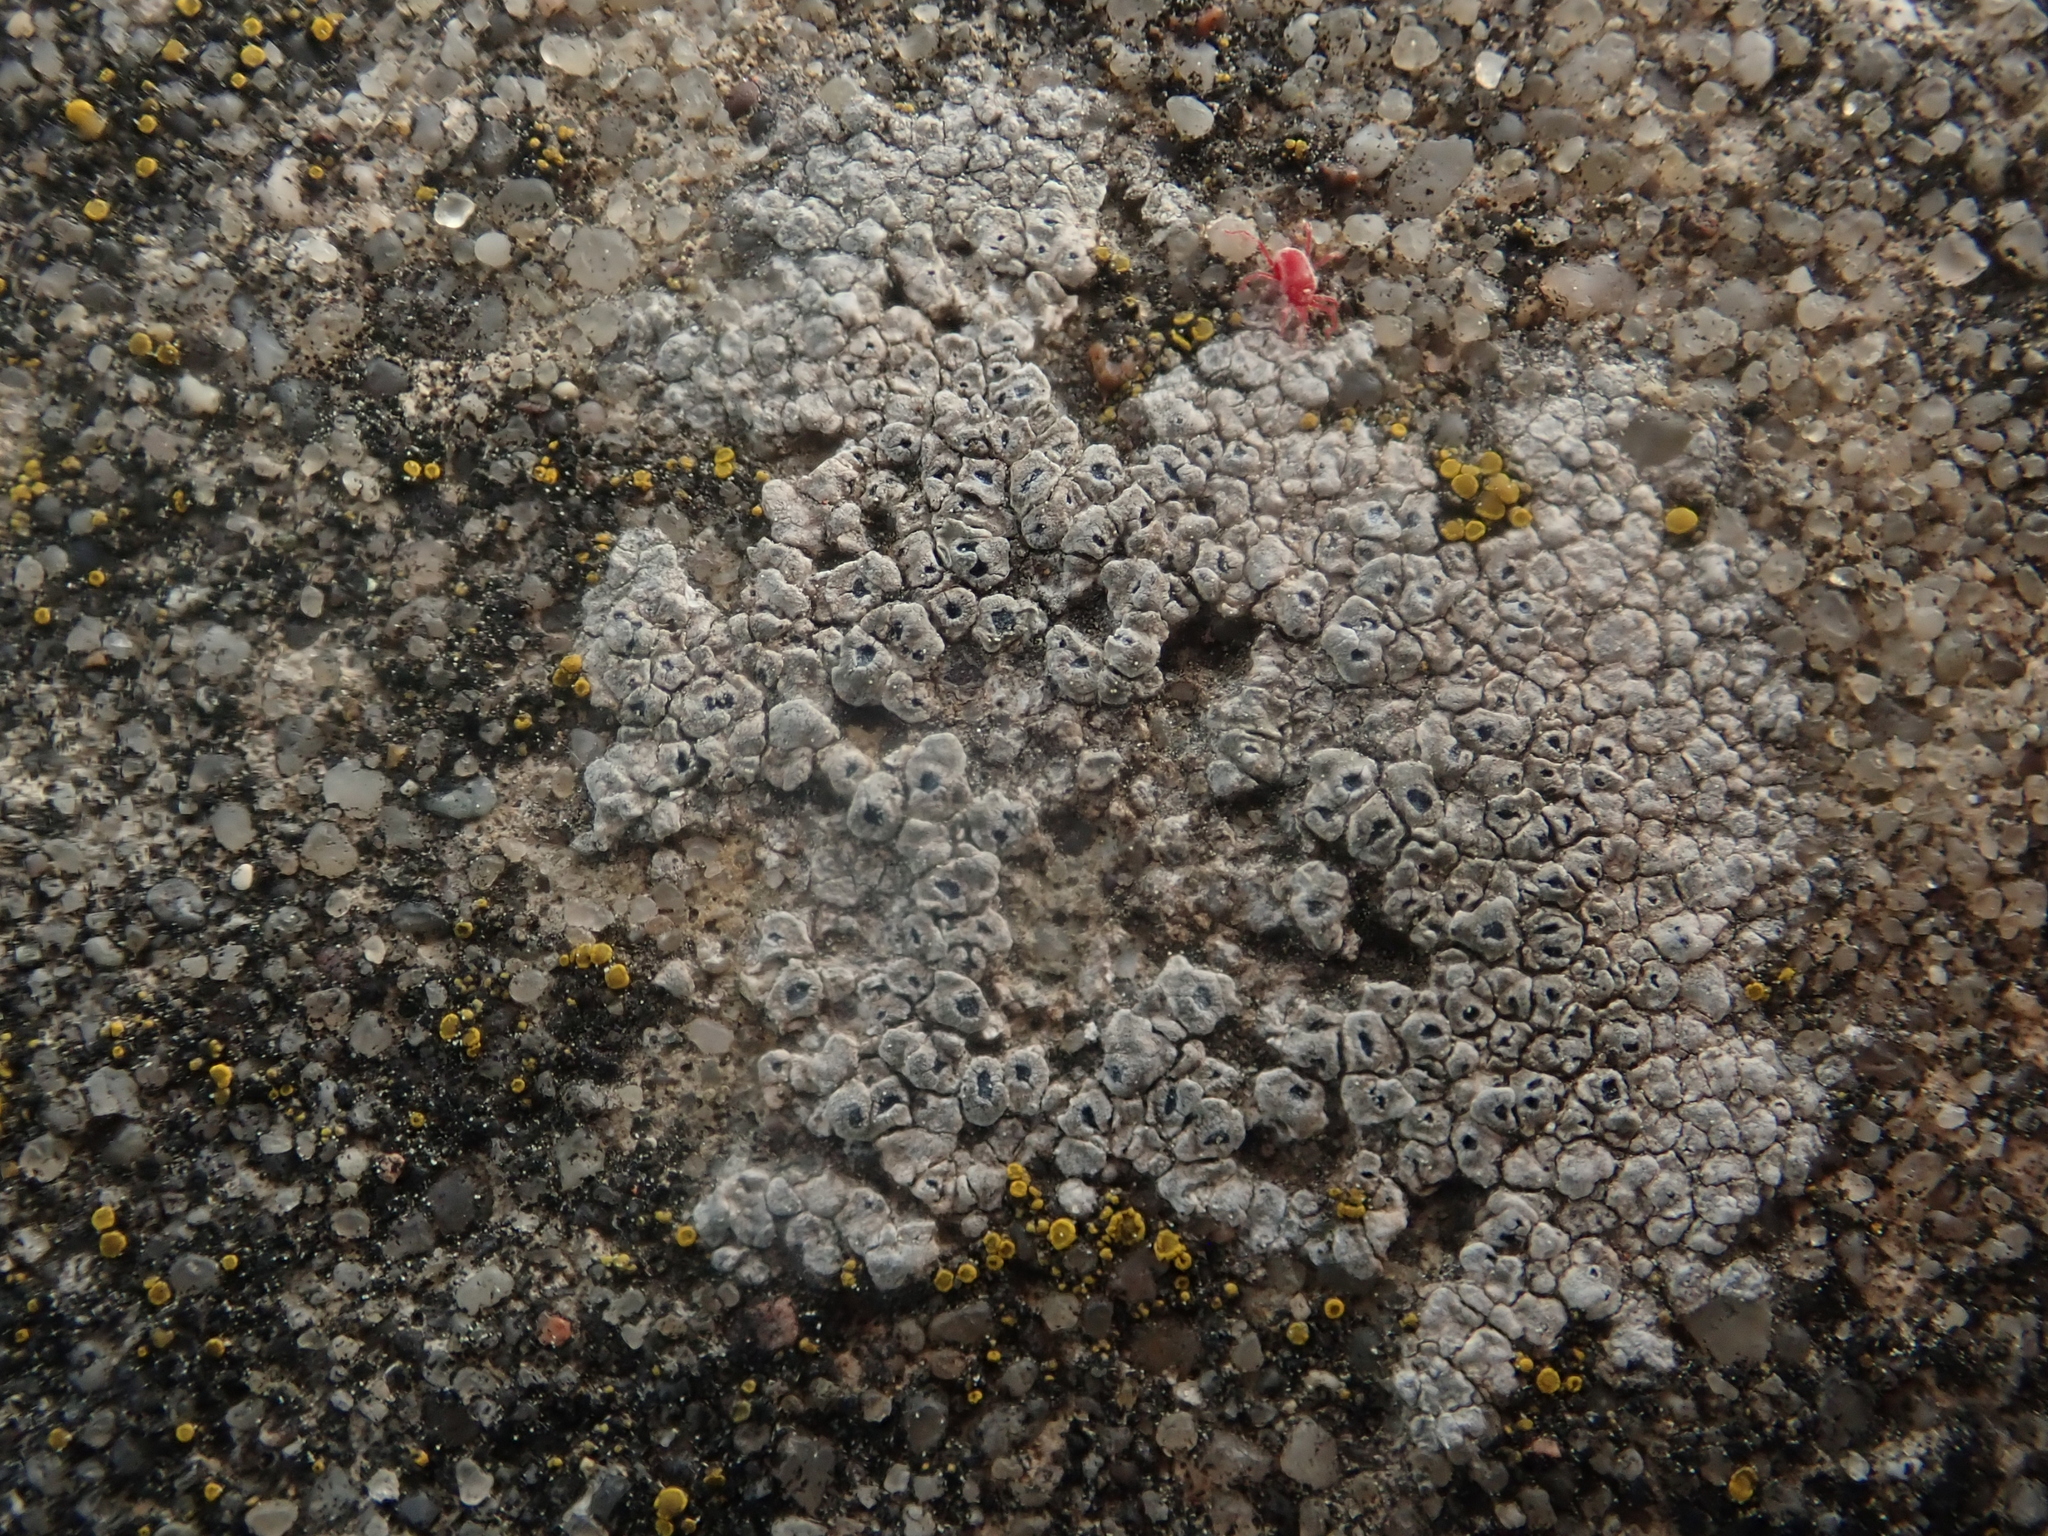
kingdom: Fungi
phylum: Ascomycota
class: Lecanoromycetes
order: Pertusariales
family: Megasporaceae
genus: Circinaria
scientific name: Circinaria contorta
